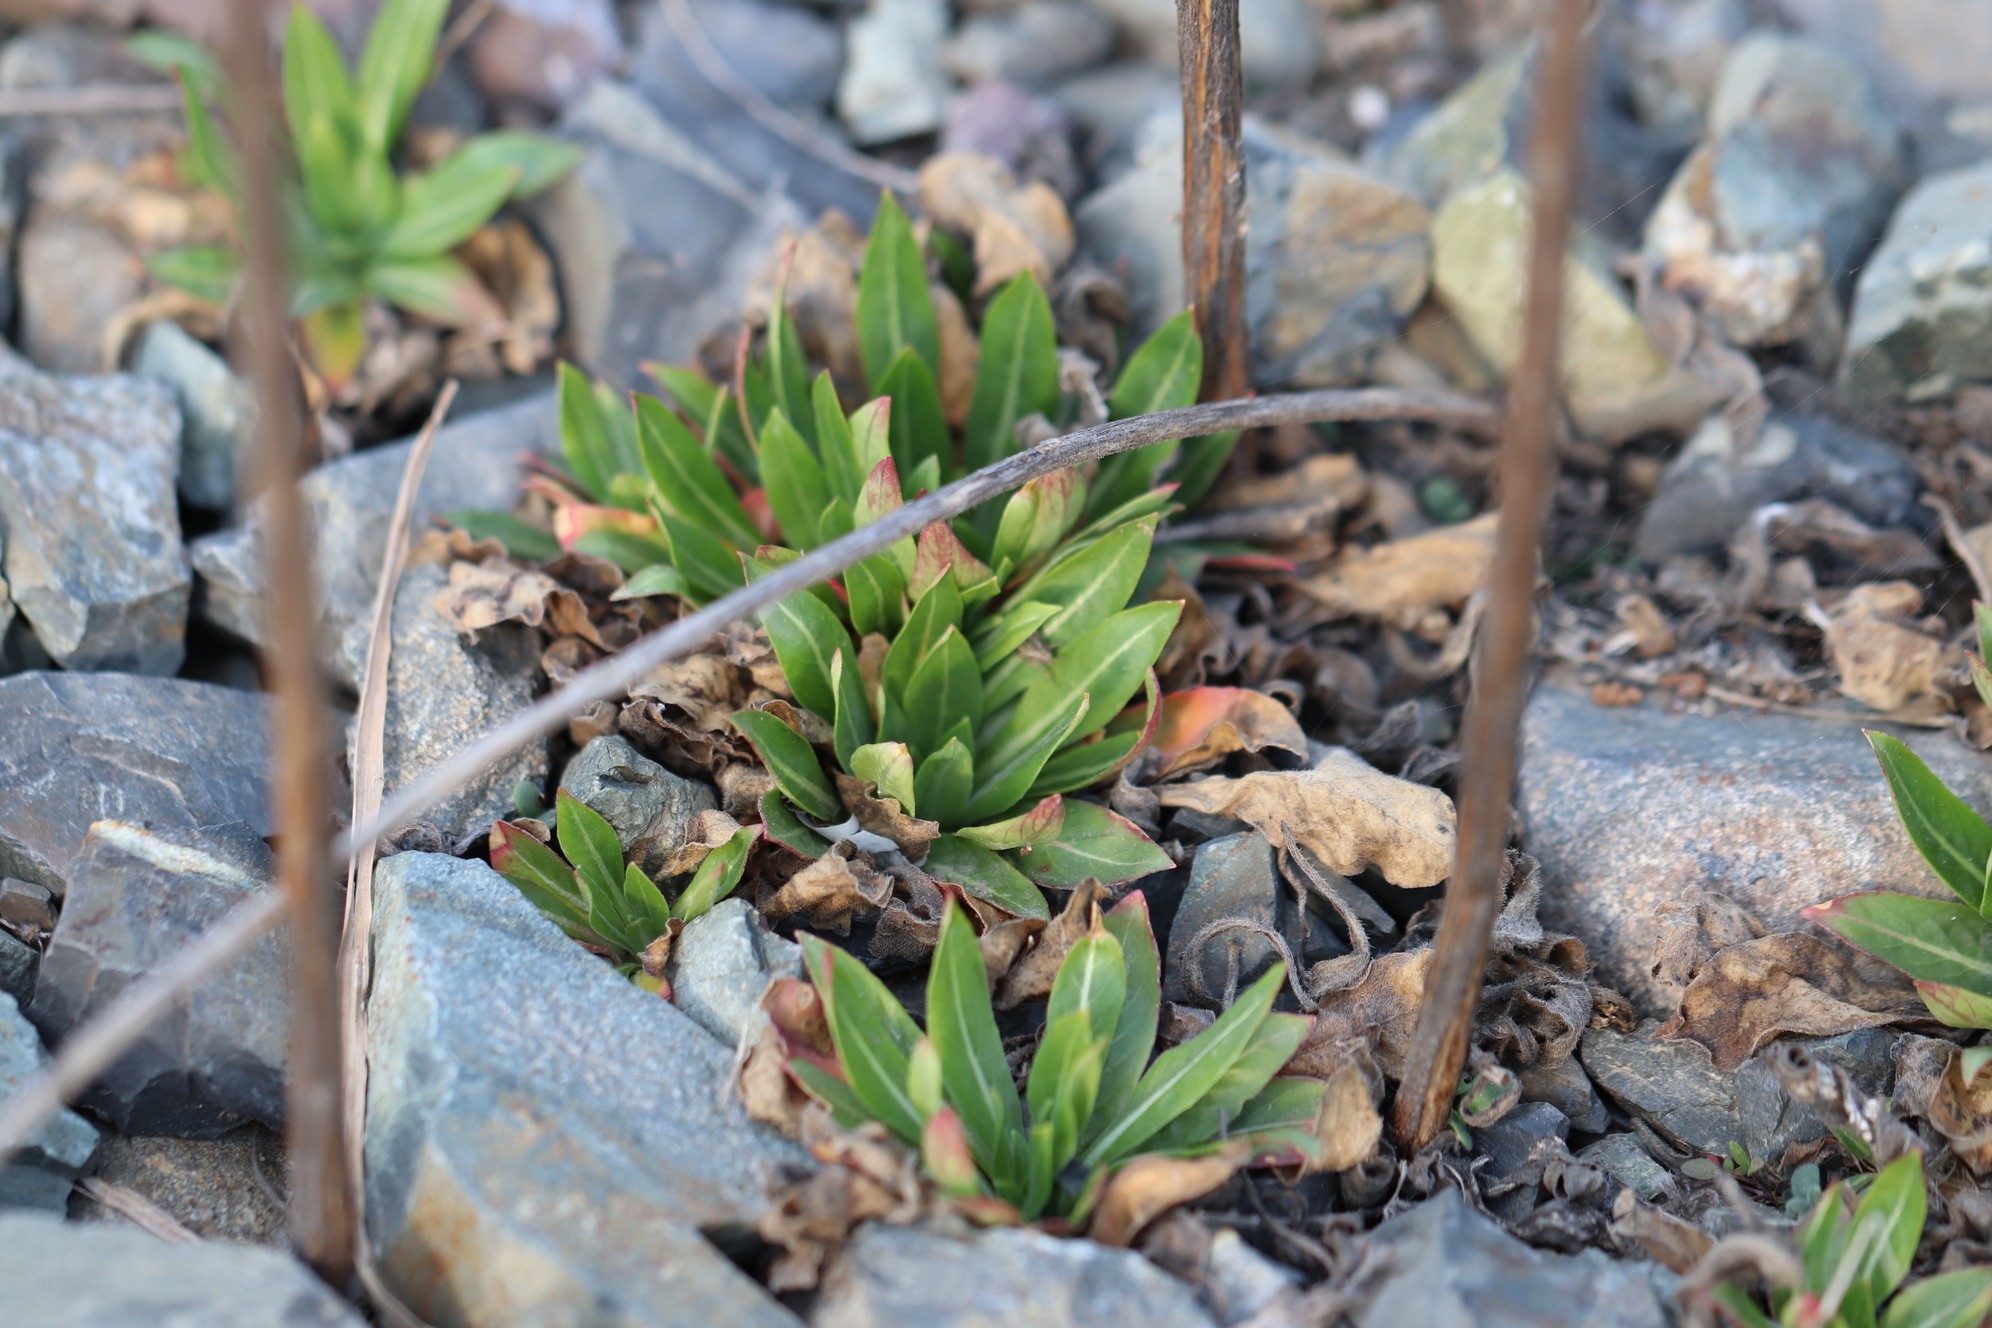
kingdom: Plantae
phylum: Tracheophyta
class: Magnoliopsida
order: Myrtales
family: Onagraceae
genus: Oenothera
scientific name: Oenothera
